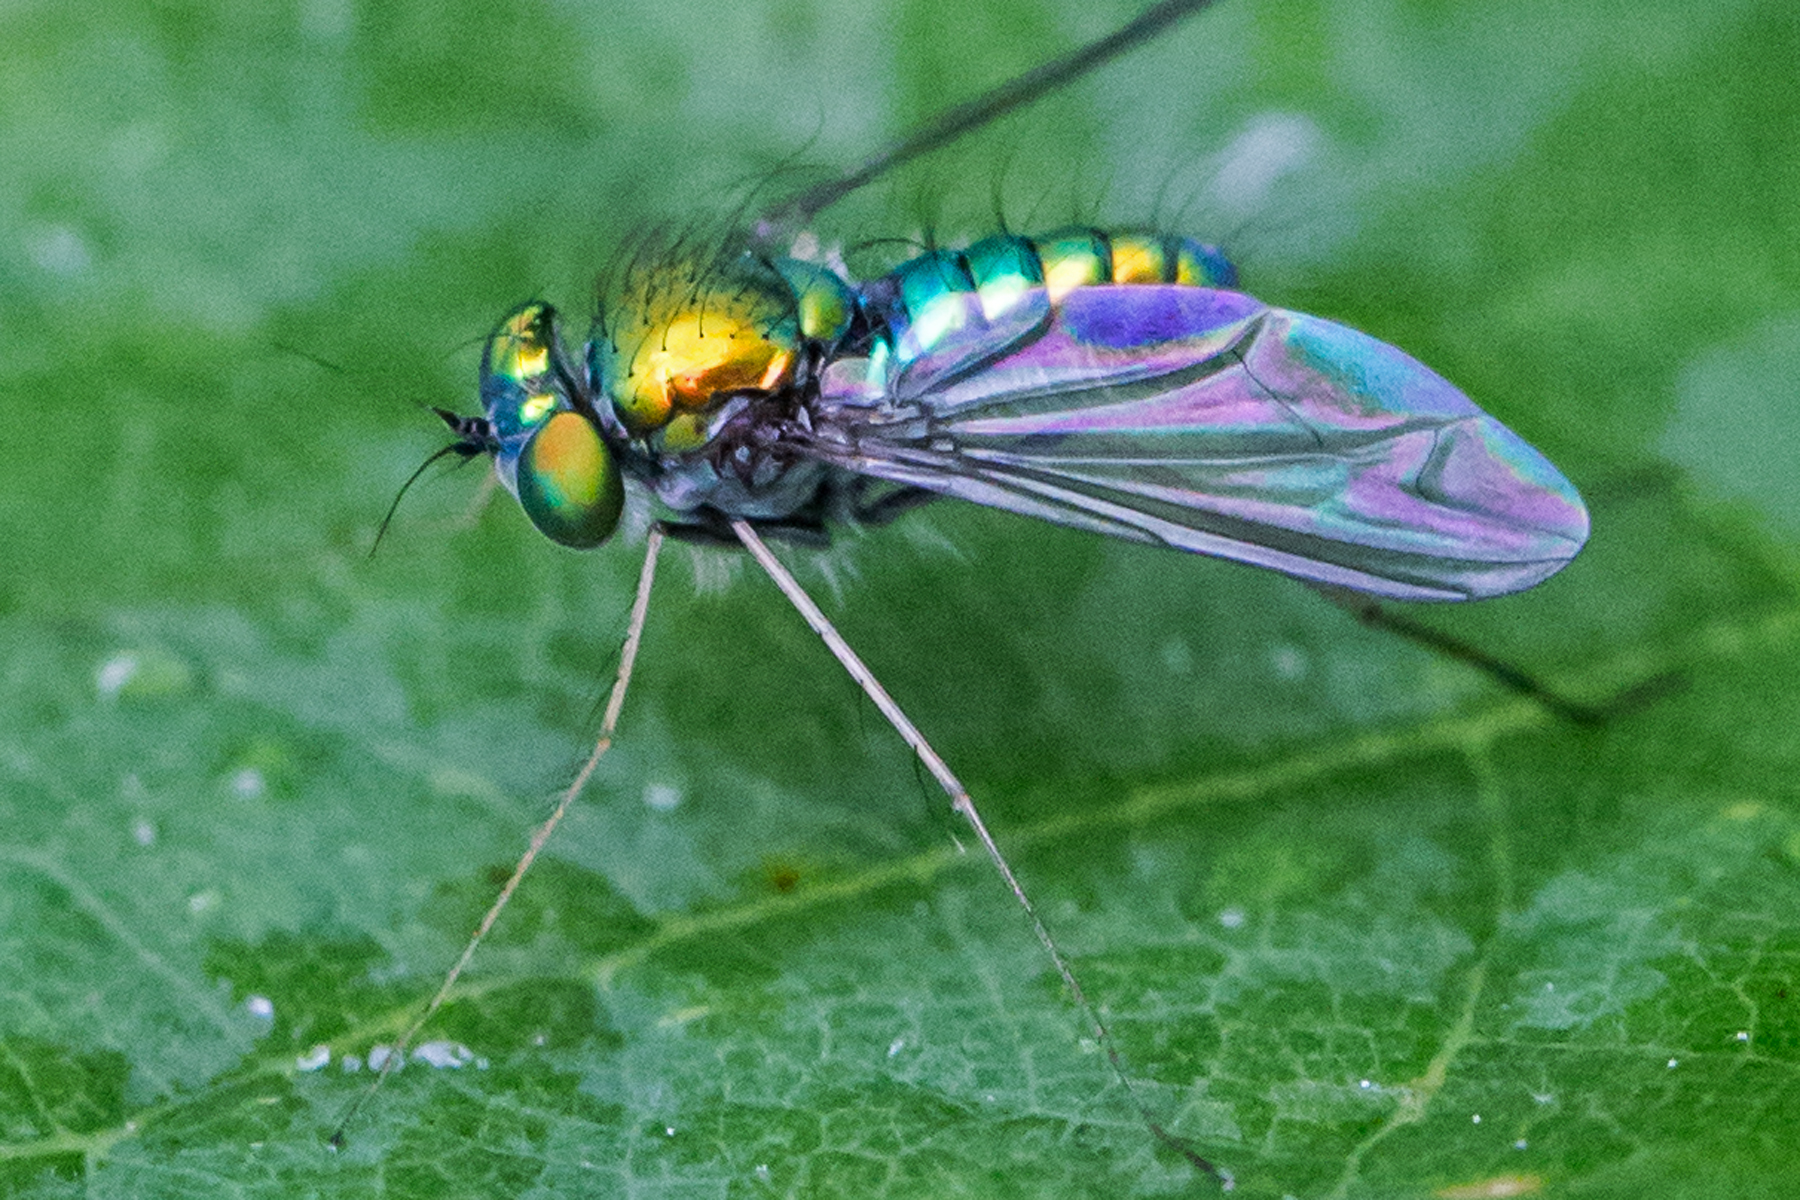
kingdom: Animalia
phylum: Arthropoda
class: Insecta
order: Diptera
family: Dolichopodidae
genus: Condylostylus
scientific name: Condylostylus comatus
